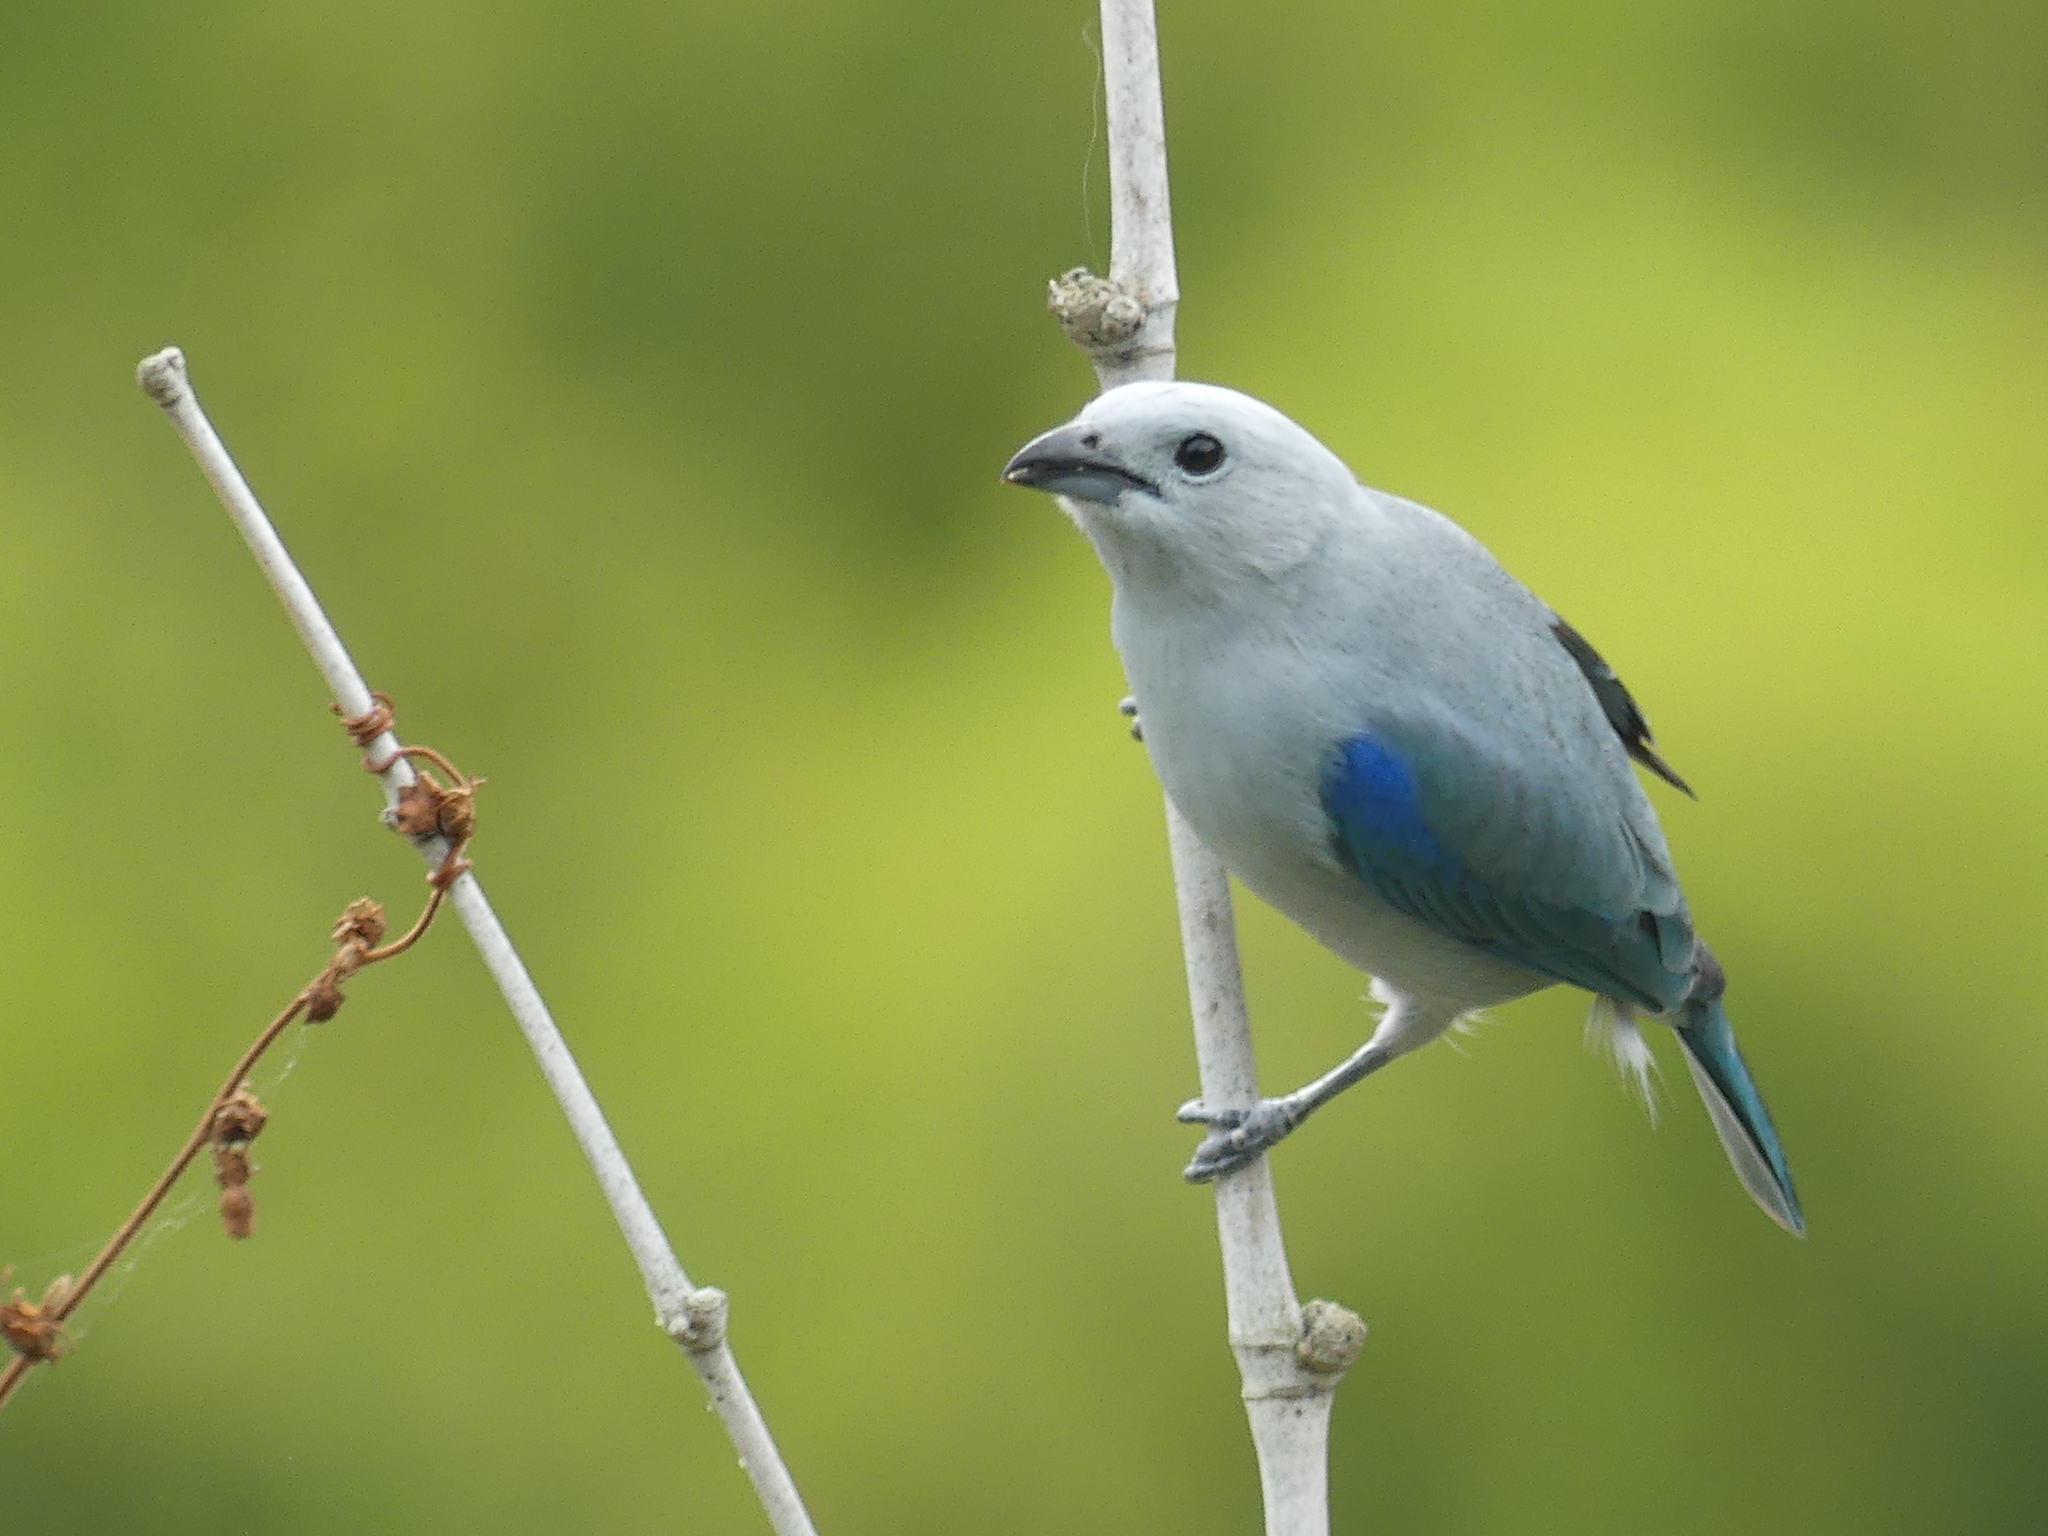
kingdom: Animalia
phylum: Chordata
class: Aves
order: Passeriformes
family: Thraupidae
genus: Thraupis
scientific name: Thraupis episcopus
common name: Blue-grey tanager
